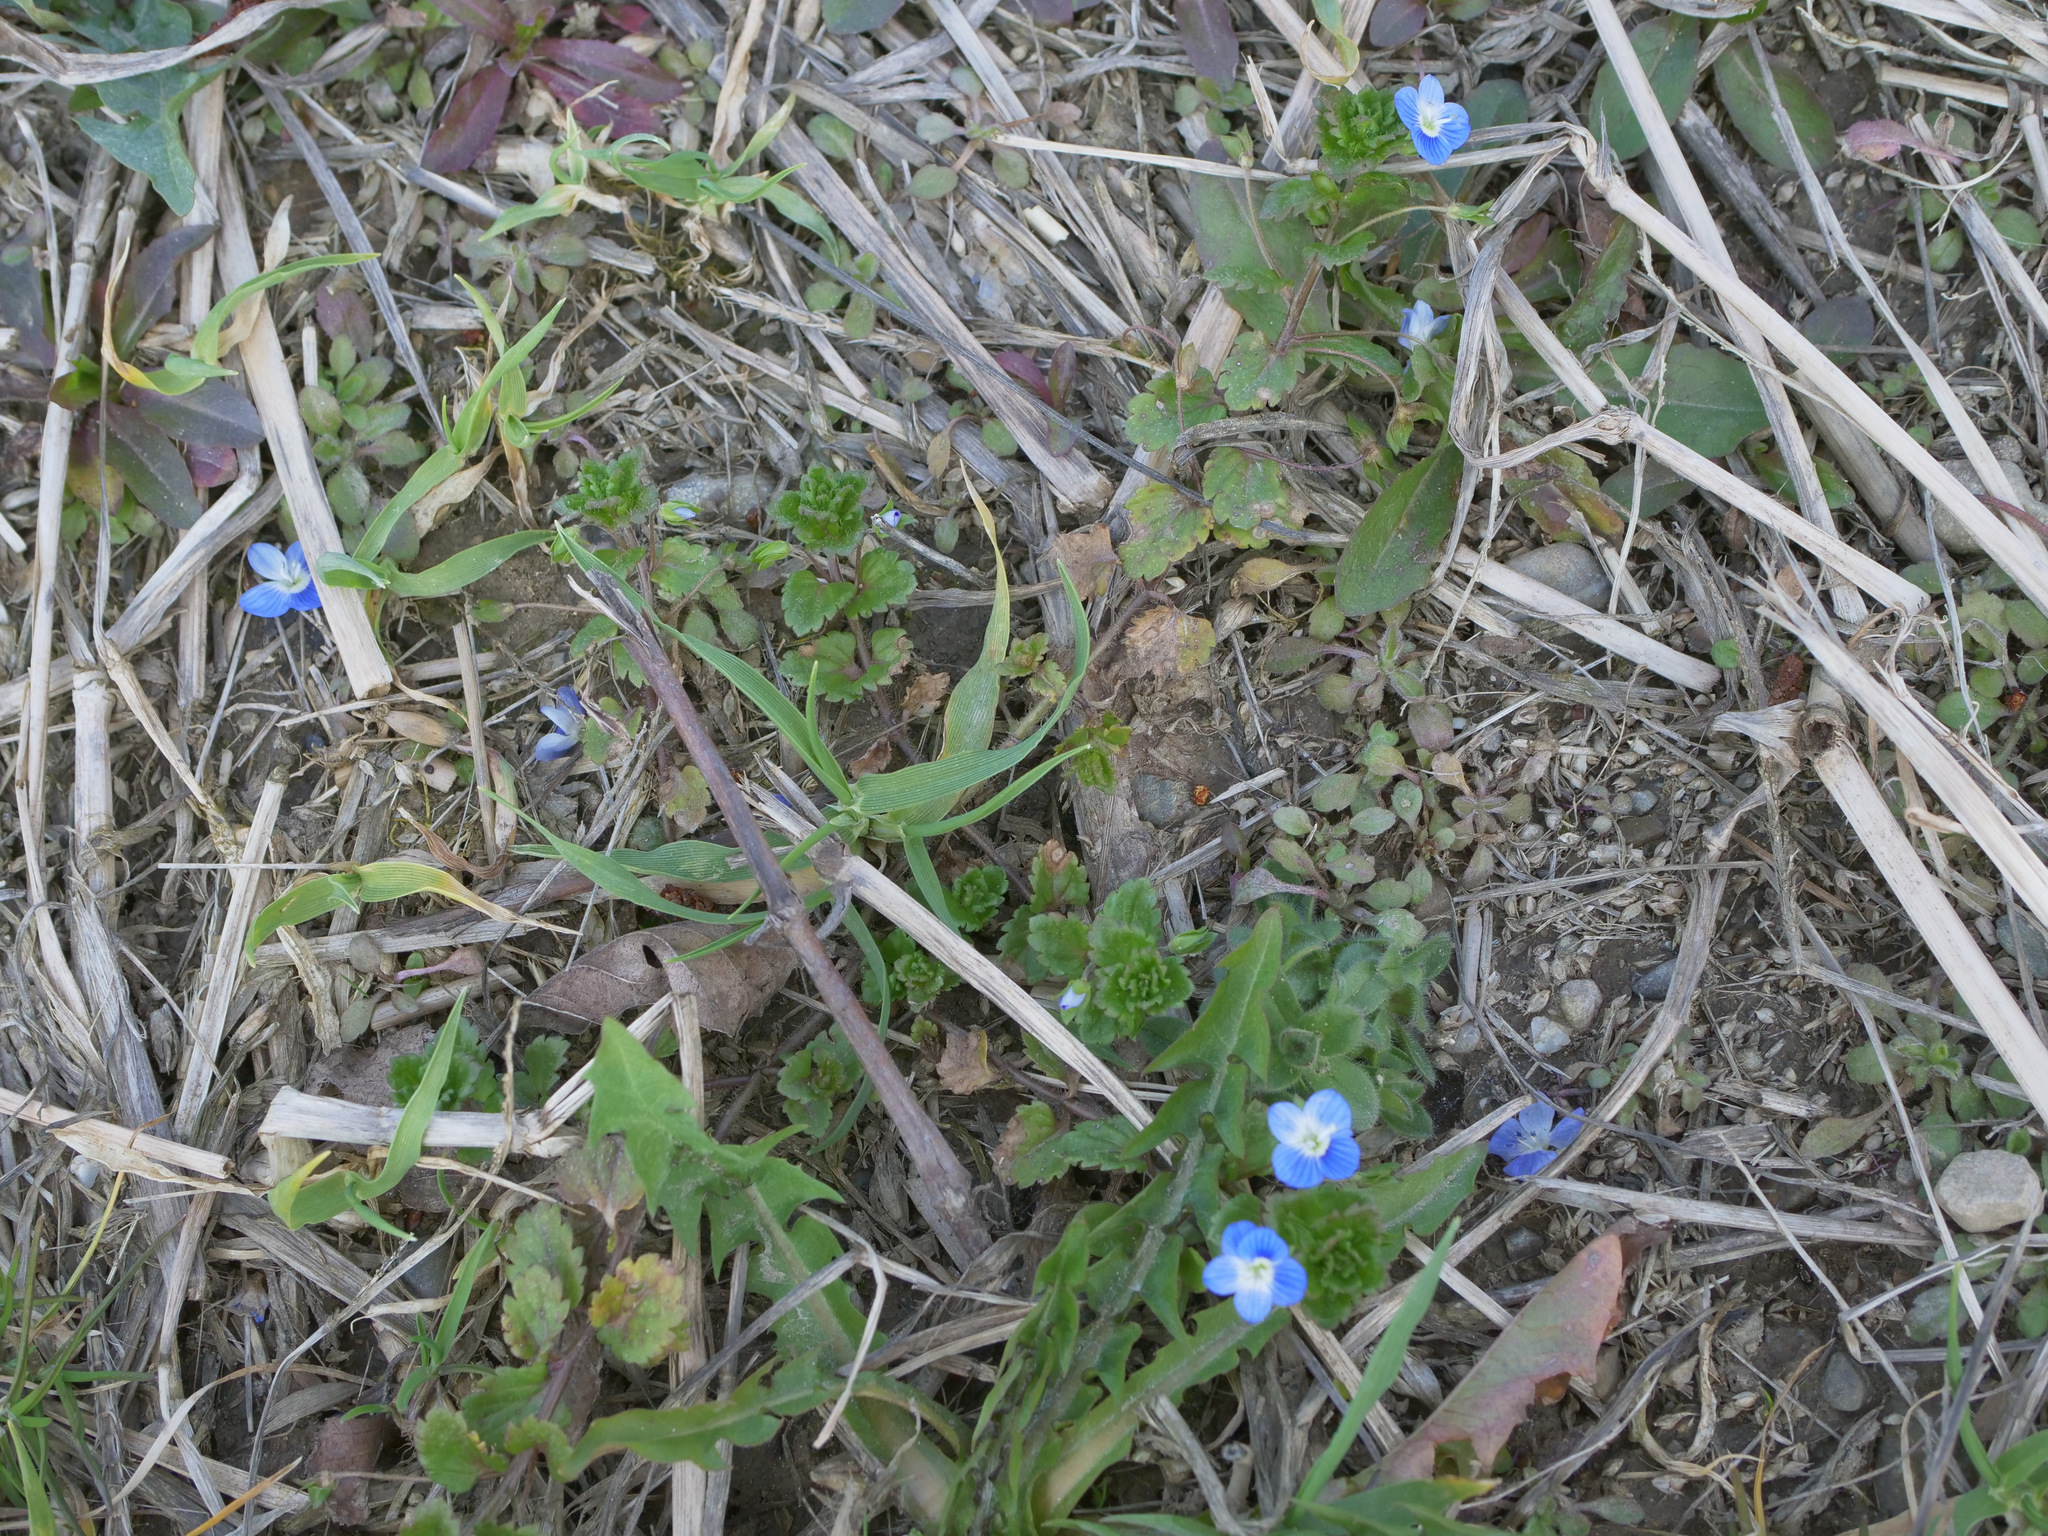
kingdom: Plantae
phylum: Tracheophyta
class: Magnoliopsida
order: Lamiales
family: Plantaginaceae
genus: Veronica
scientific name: Veronica persica
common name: Common field-speedwell
